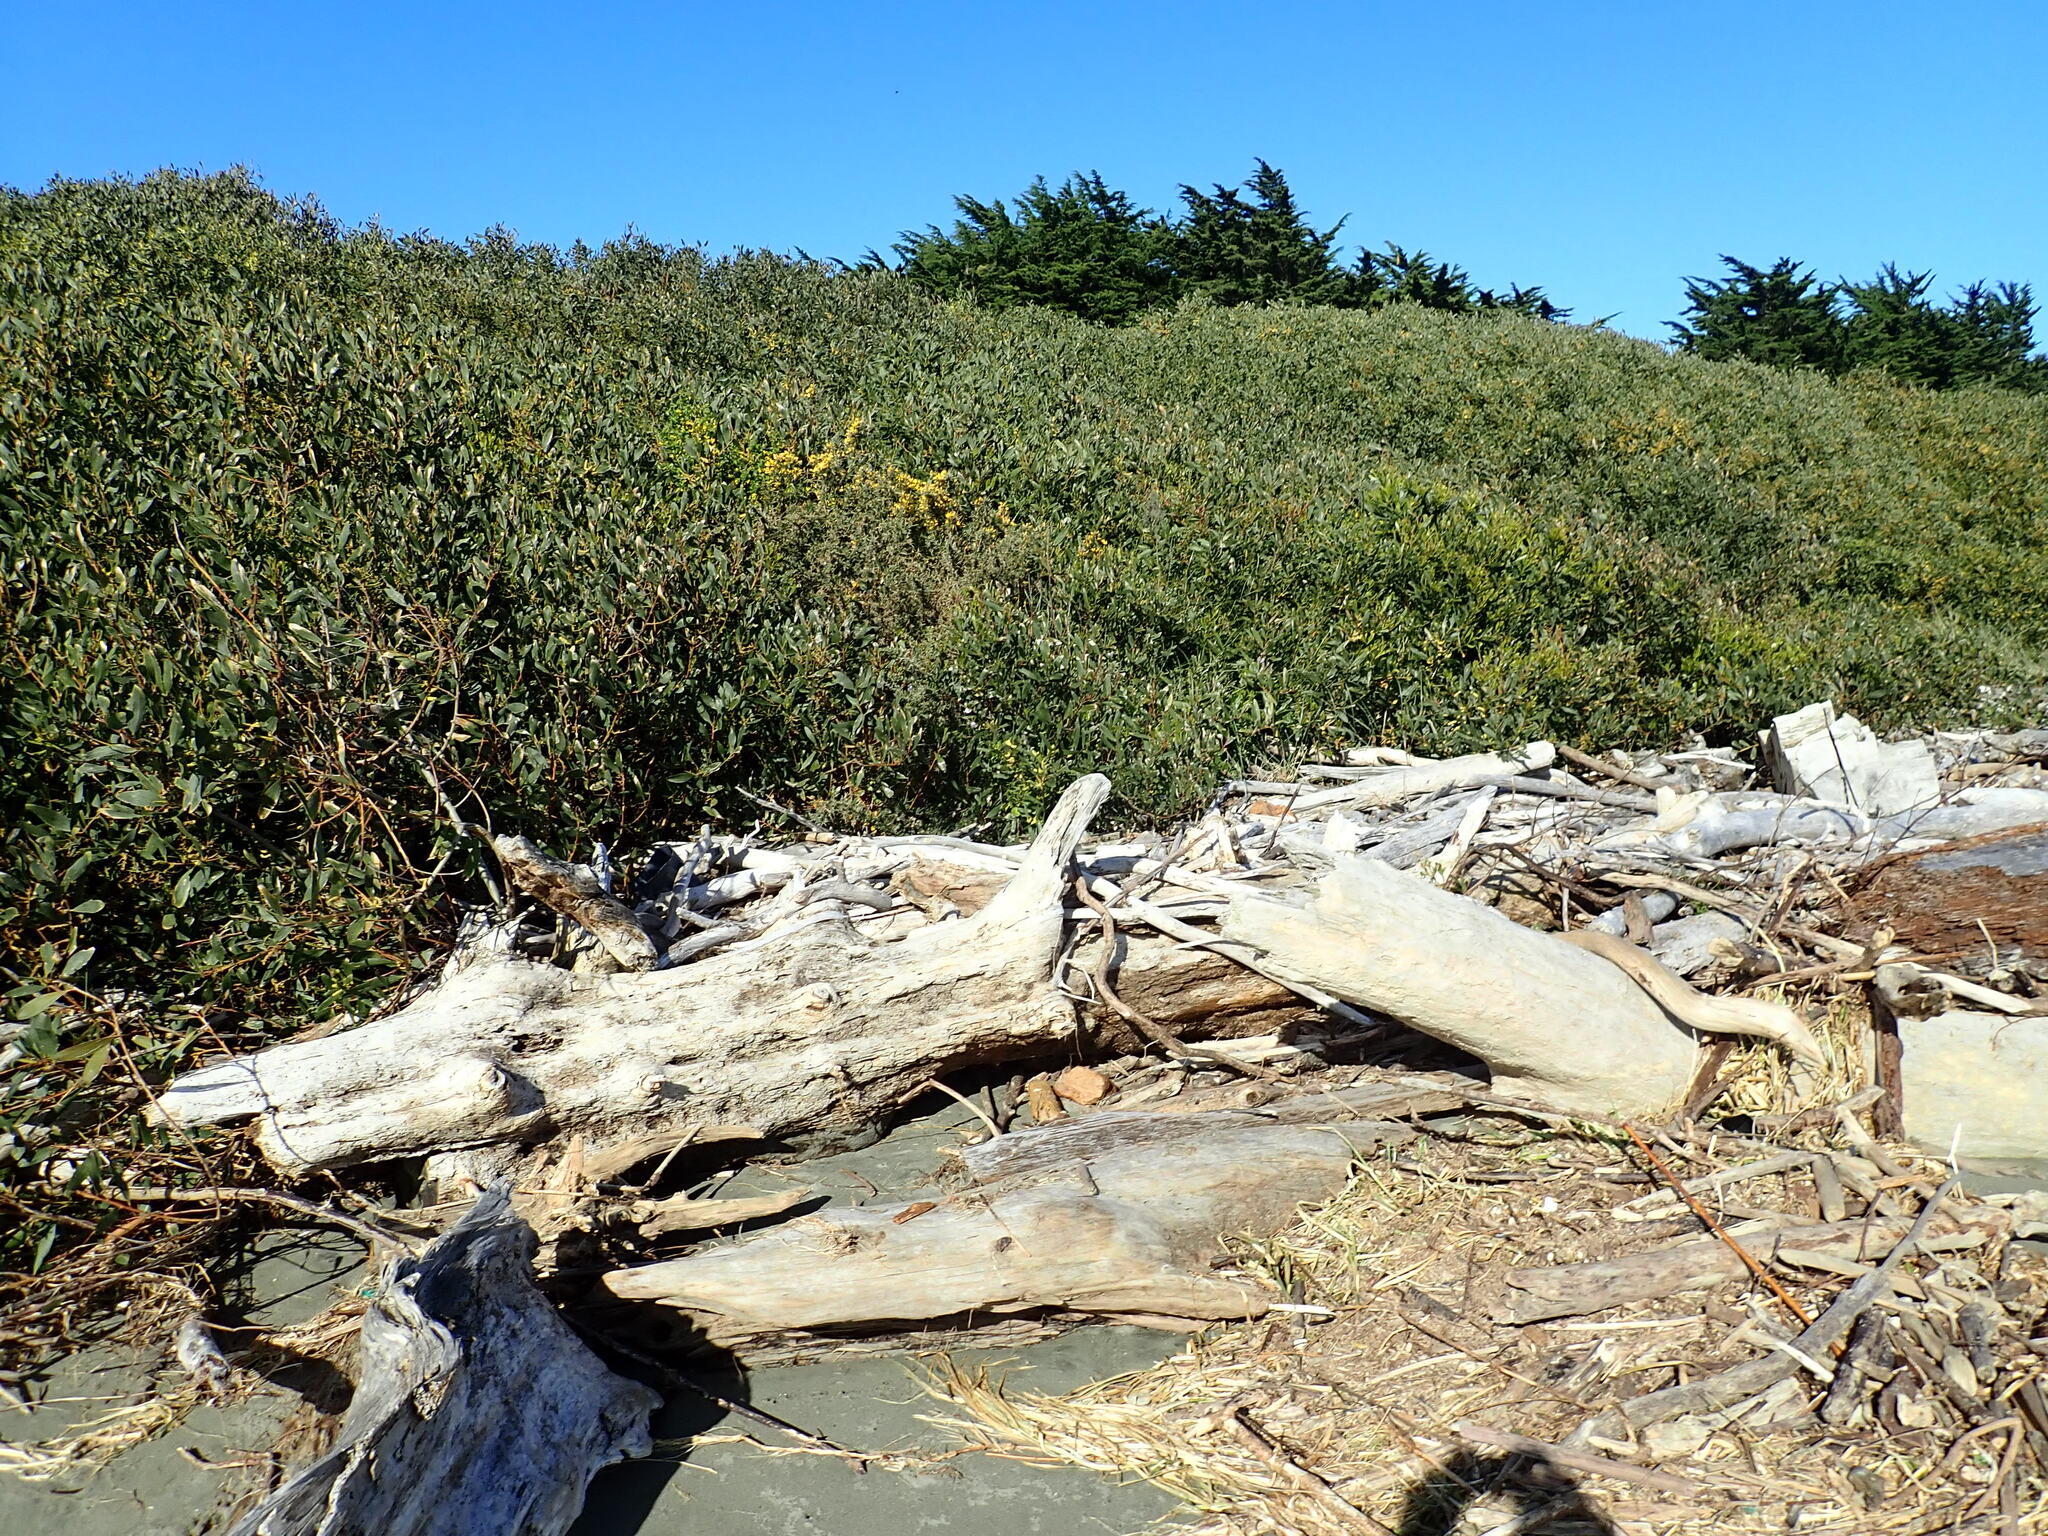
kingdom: Plantae
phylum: Tracheophyta
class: Magnoliopsida
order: Fabales
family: Fabaceae
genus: Ulex
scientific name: Ulex europaeus
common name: Common gorse
